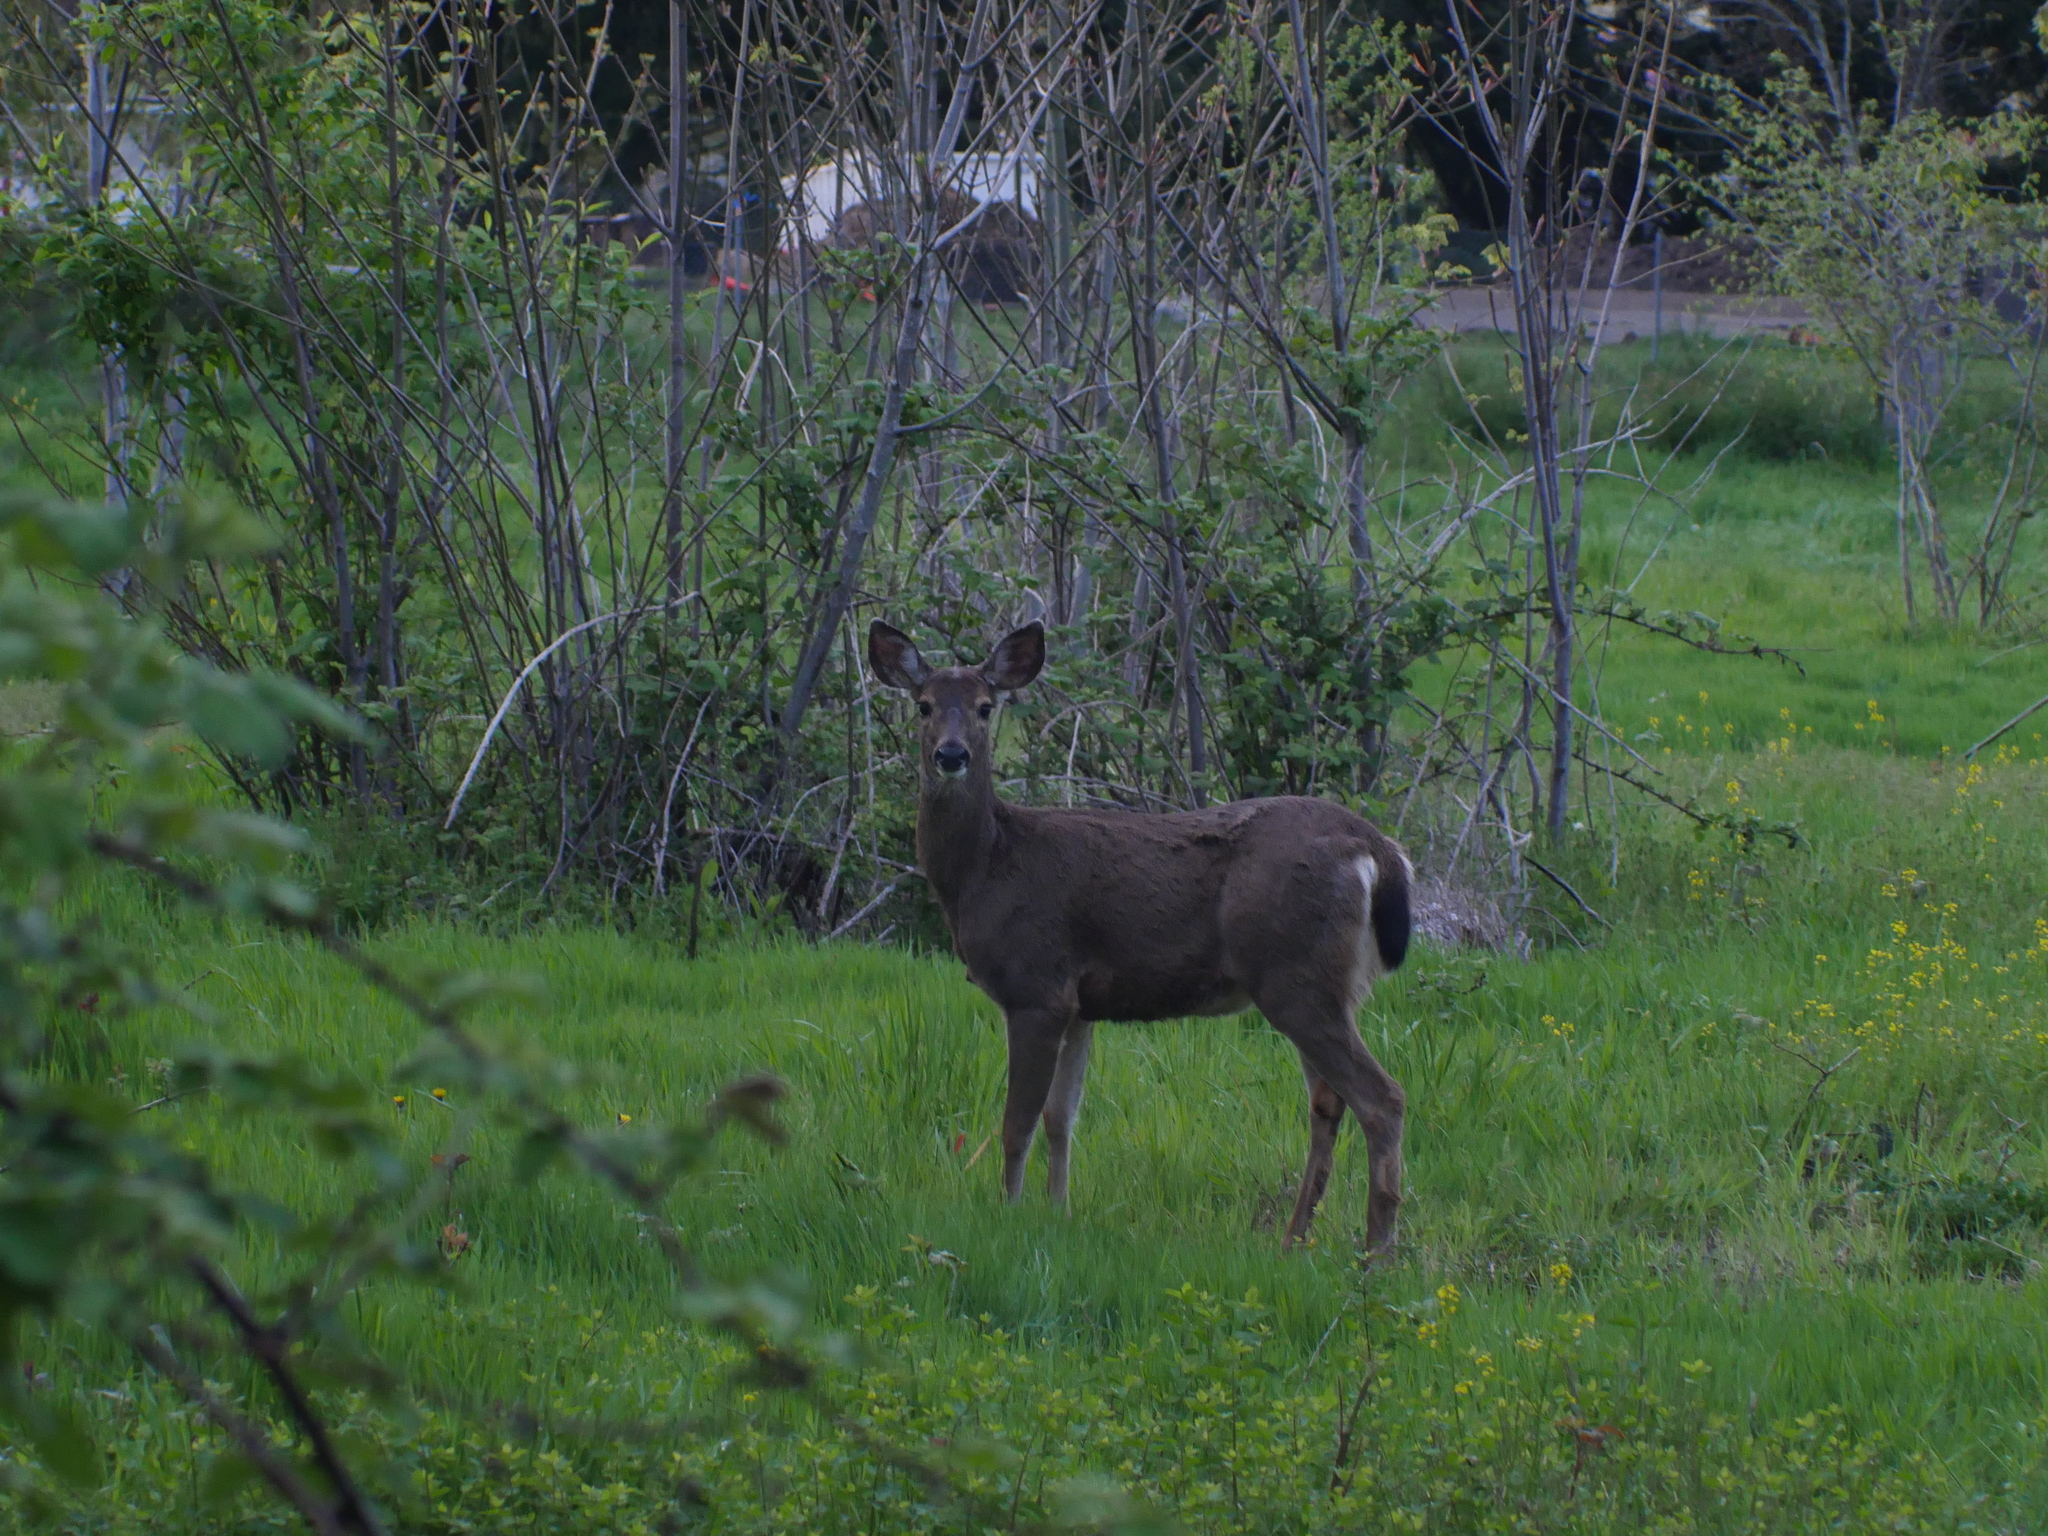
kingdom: Animalia
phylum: Chordata
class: Mammalia
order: Artiodactyla
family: Cervidae
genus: Odocoileus
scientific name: Odocoileus hemionus
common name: Mule deer
